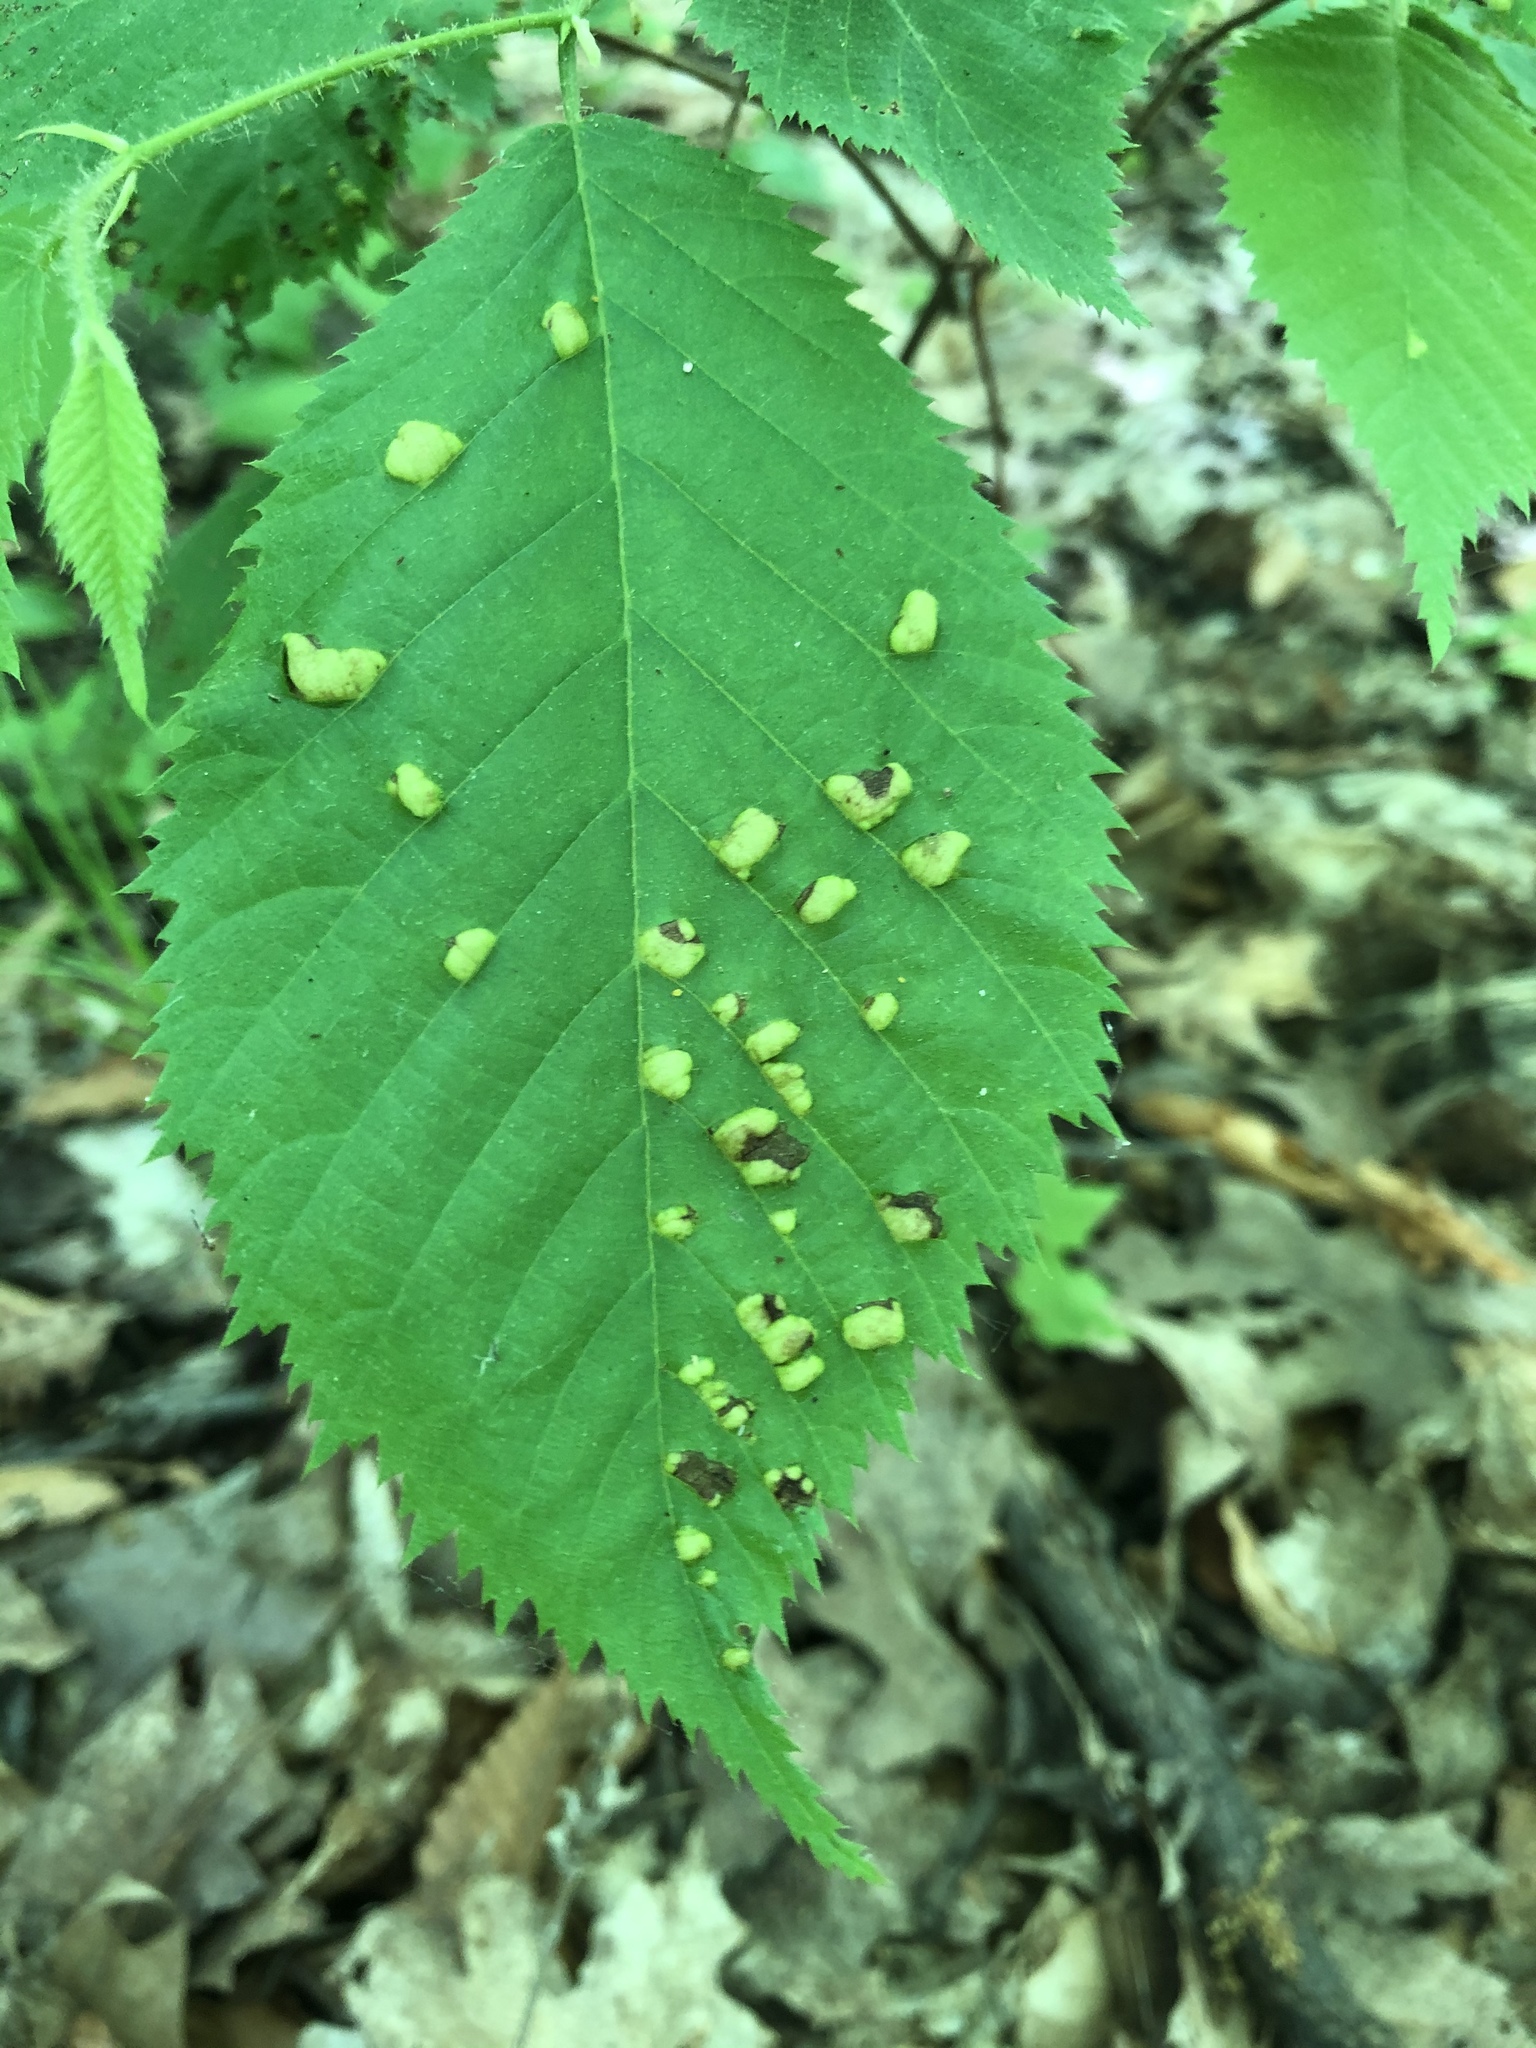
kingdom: Fungi
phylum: Ascomycota
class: Taphrinomycetes
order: Taphrinales
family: Taphrinaceae
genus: Taphrina
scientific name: Taphrina virginica
